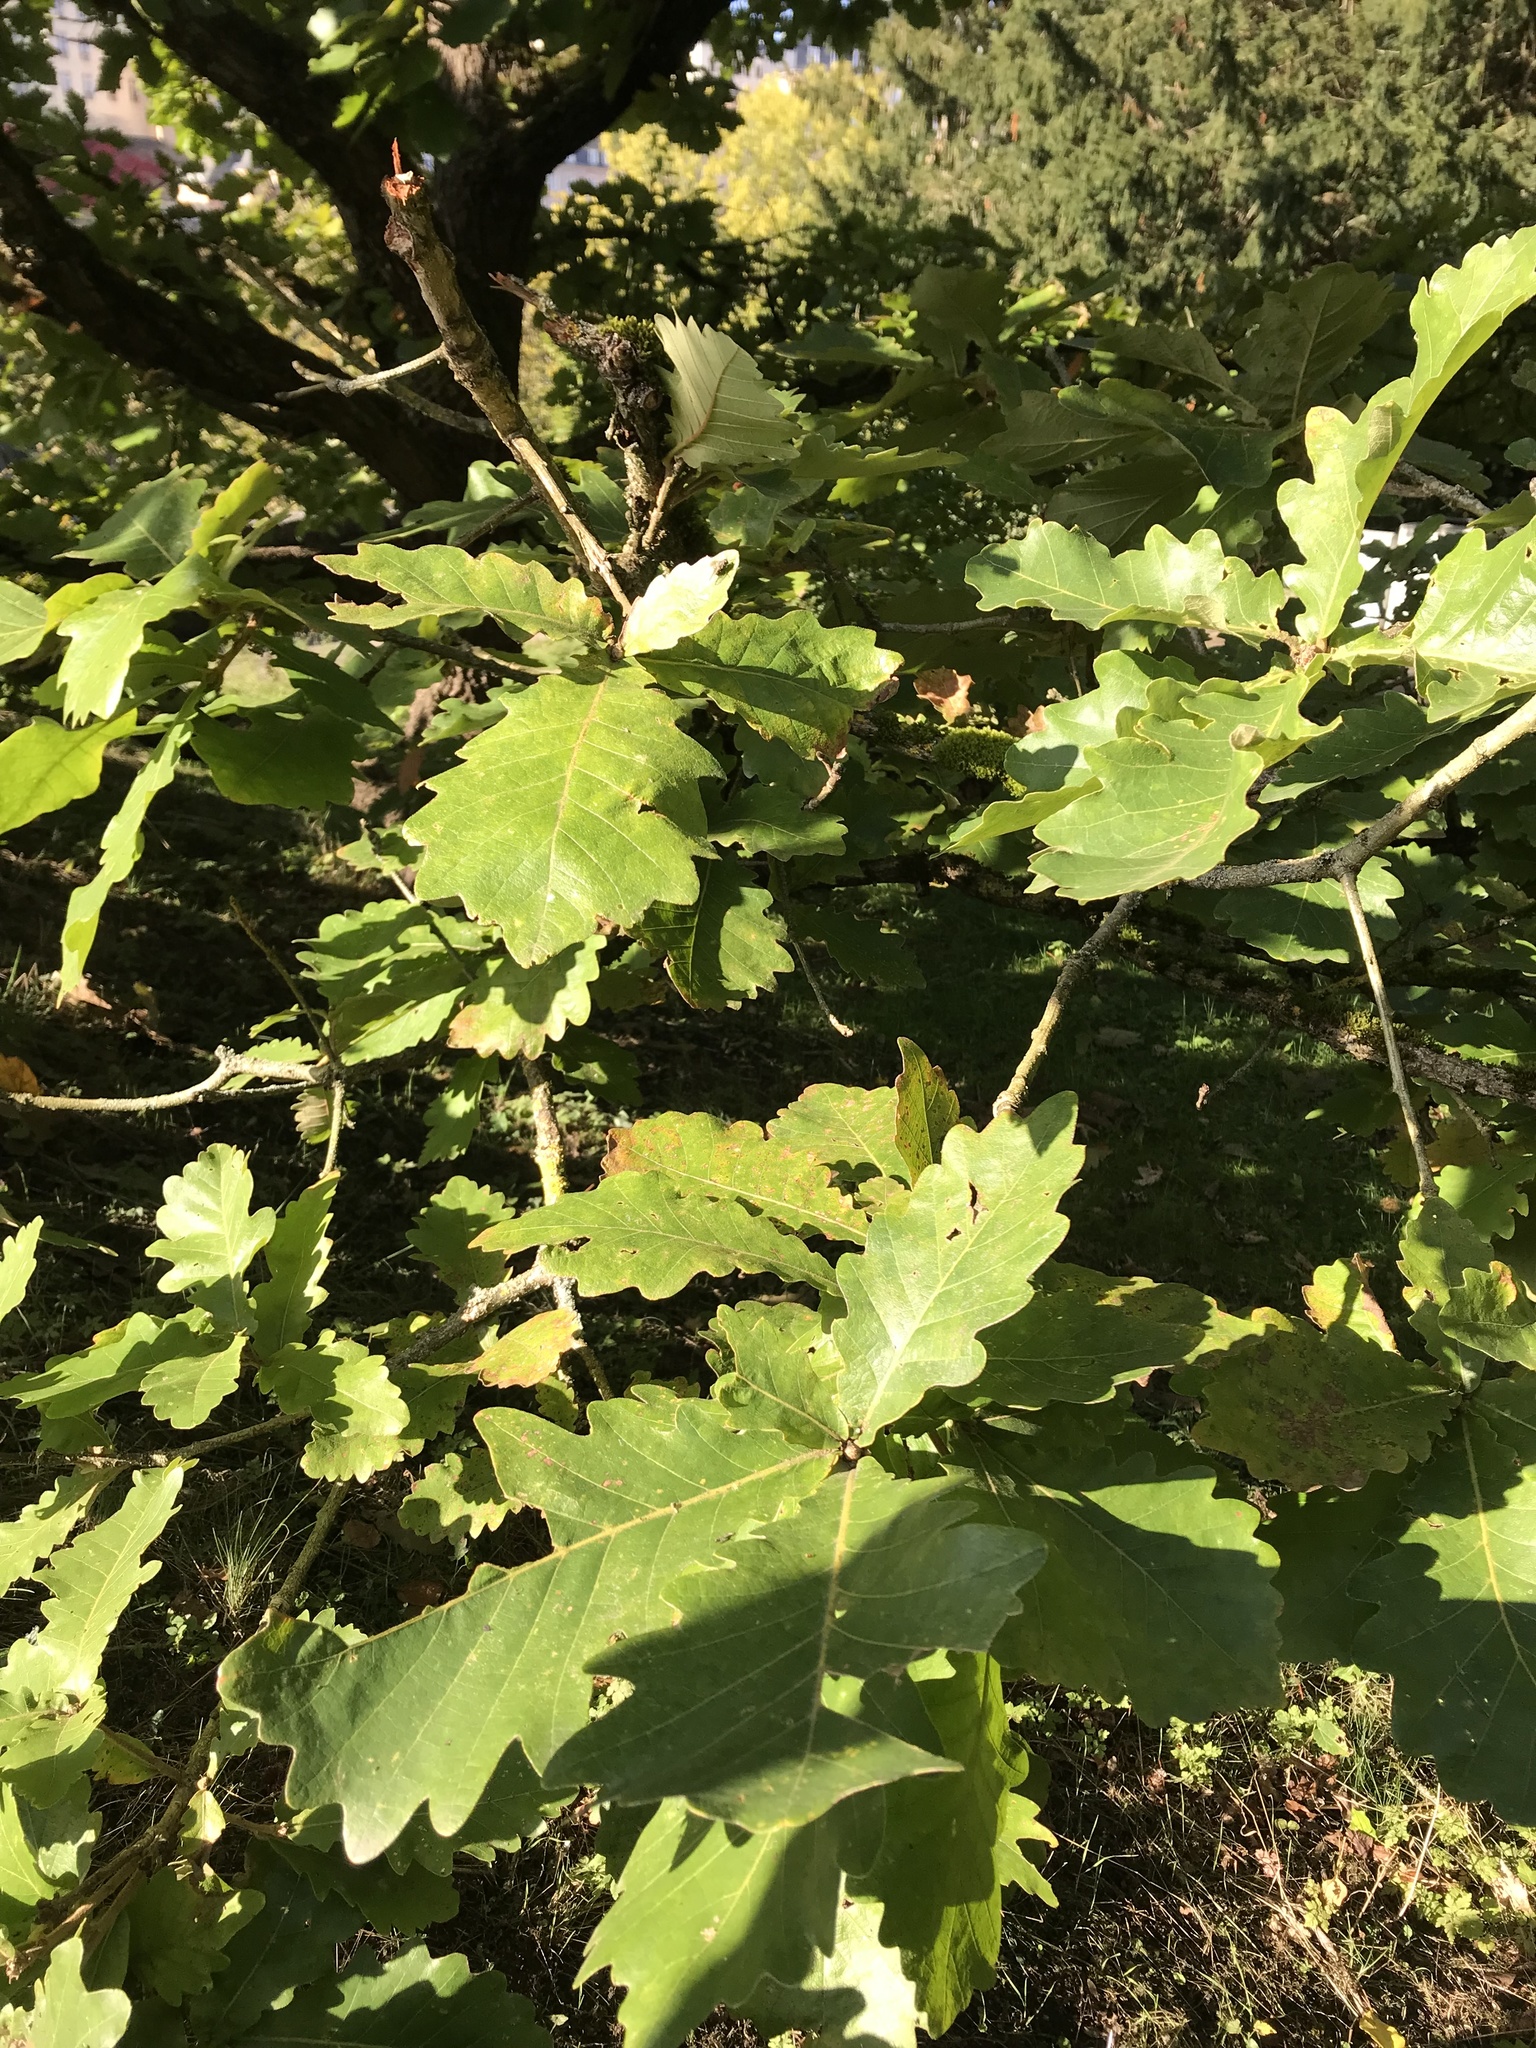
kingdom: Plantae
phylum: Tracheophyta
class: Magnoliopsida
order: Fagales
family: Fagaceae
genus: Quercus
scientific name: Quercus robur
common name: Pedunculate oak
